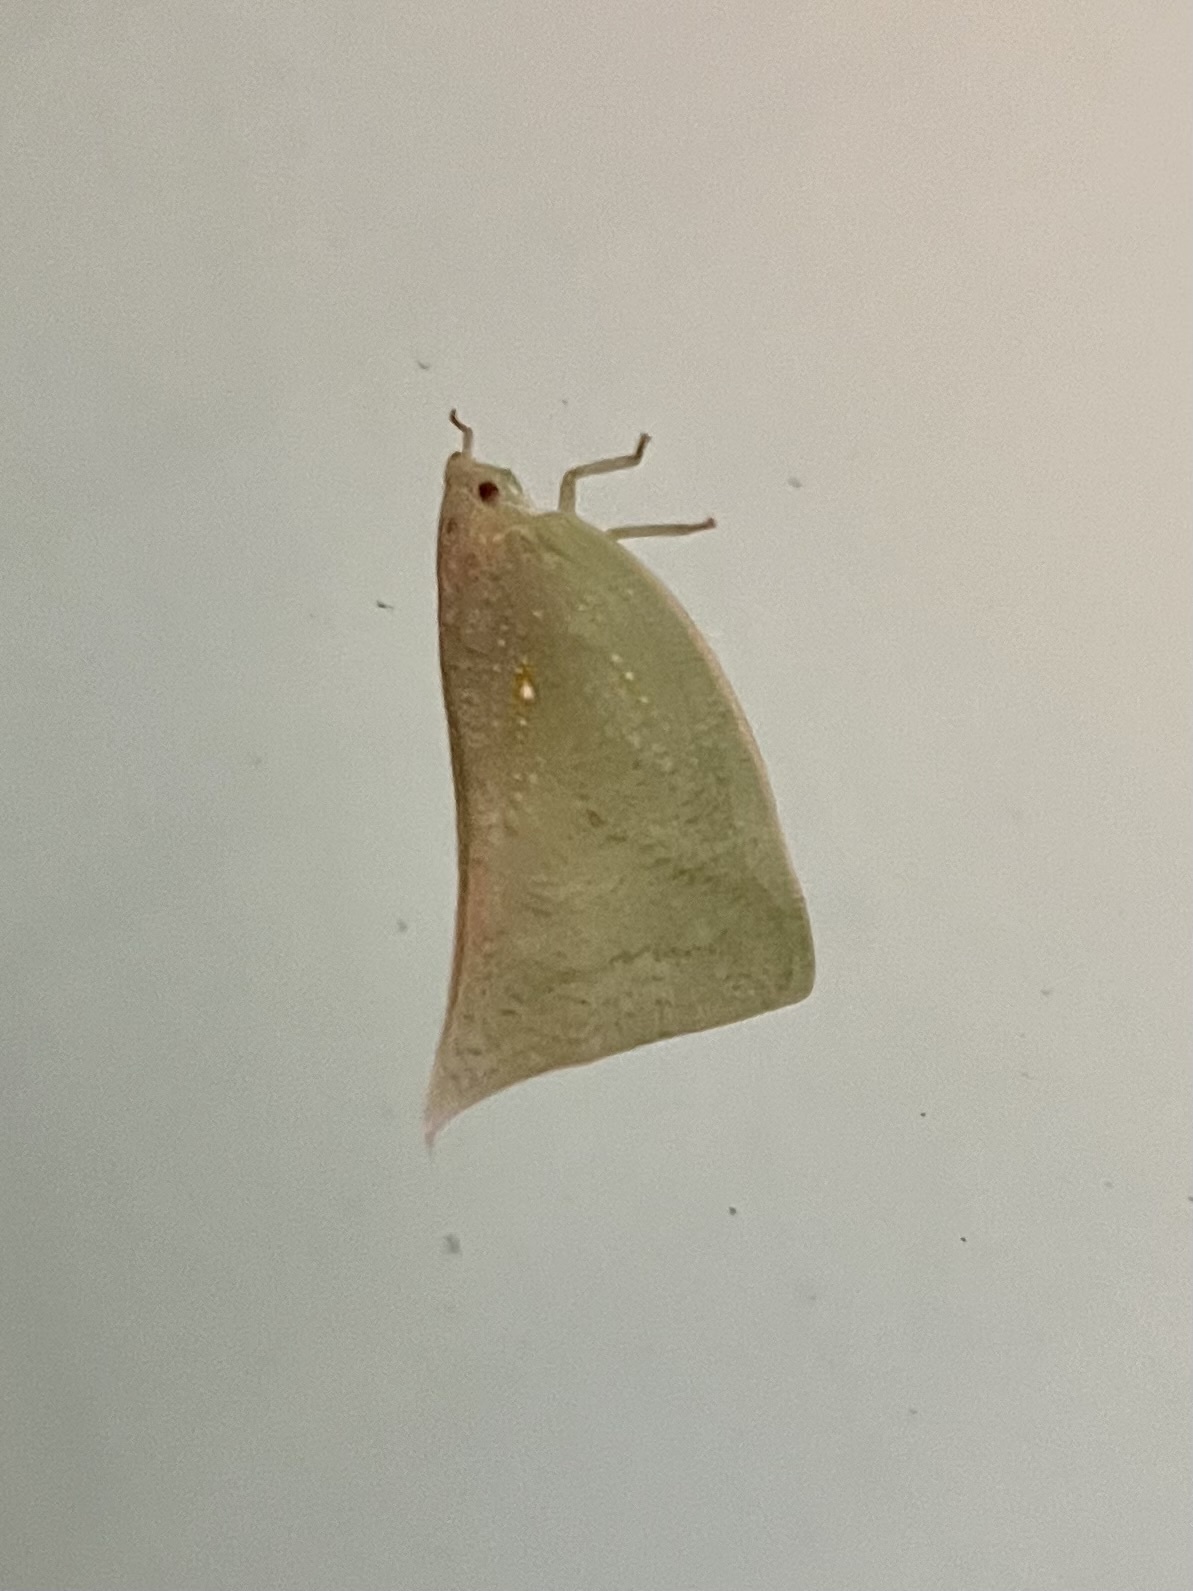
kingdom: Animalia
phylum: Arthropoda
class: Insecta
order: Hemiptera
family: Flatidae
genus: Lawana
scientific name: Lawana imitata
